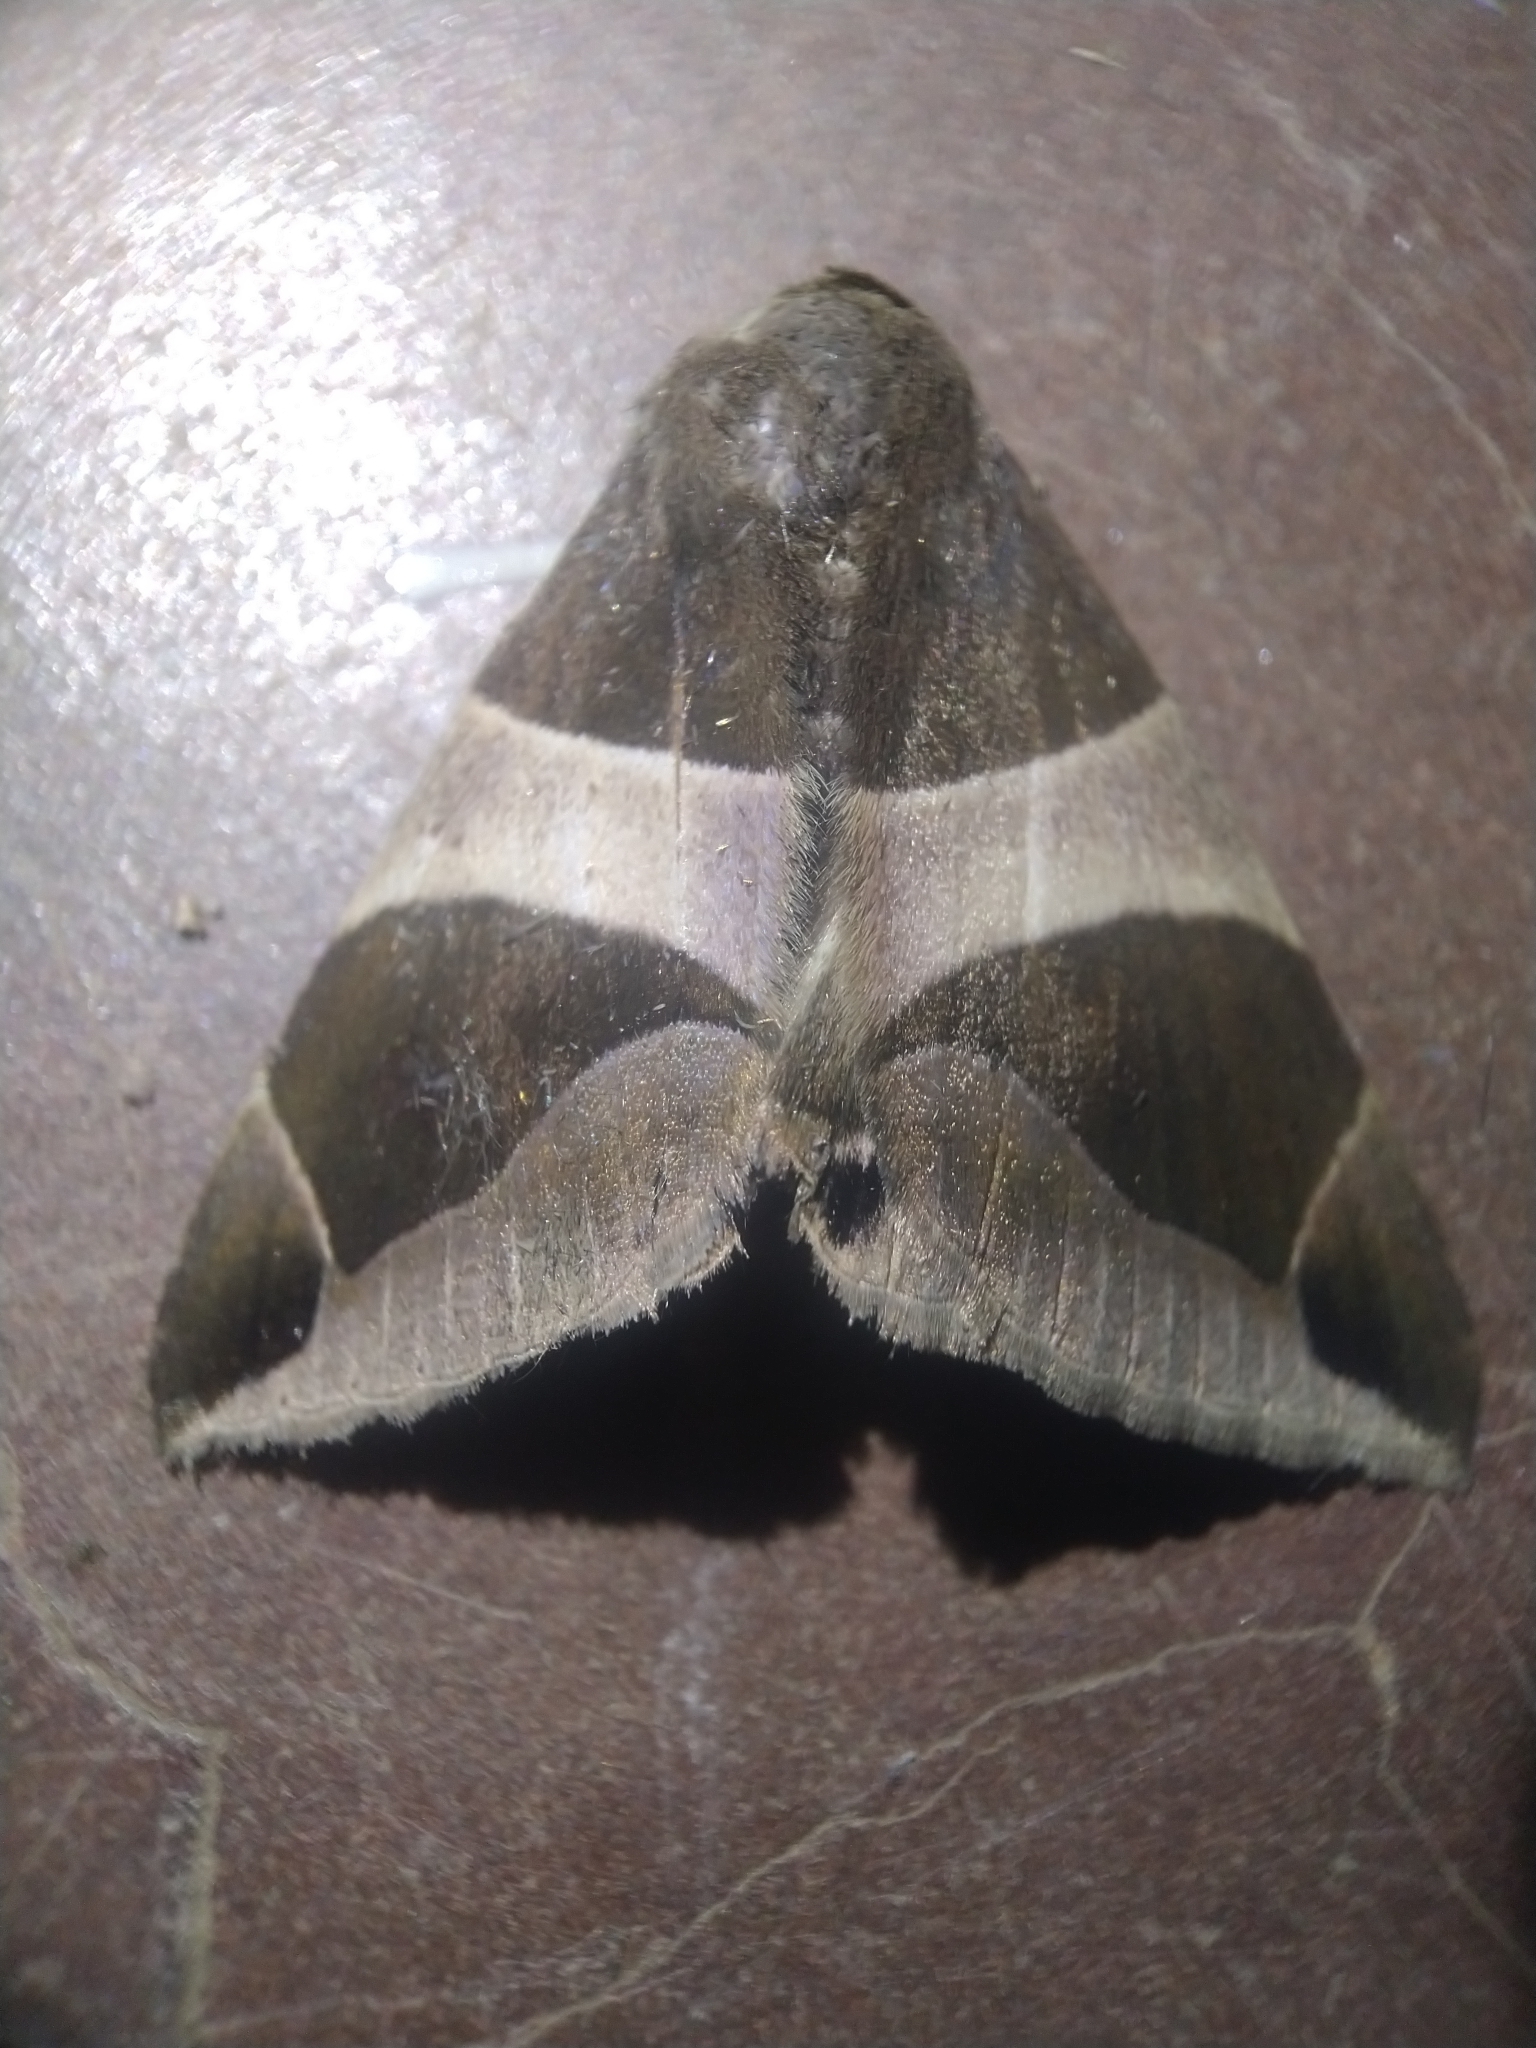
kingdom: Animalia
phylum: Arthropoda
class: Insecta
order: Lepidoptera
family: Erebidae
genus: Bastilla
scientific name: Bastilla crameri
